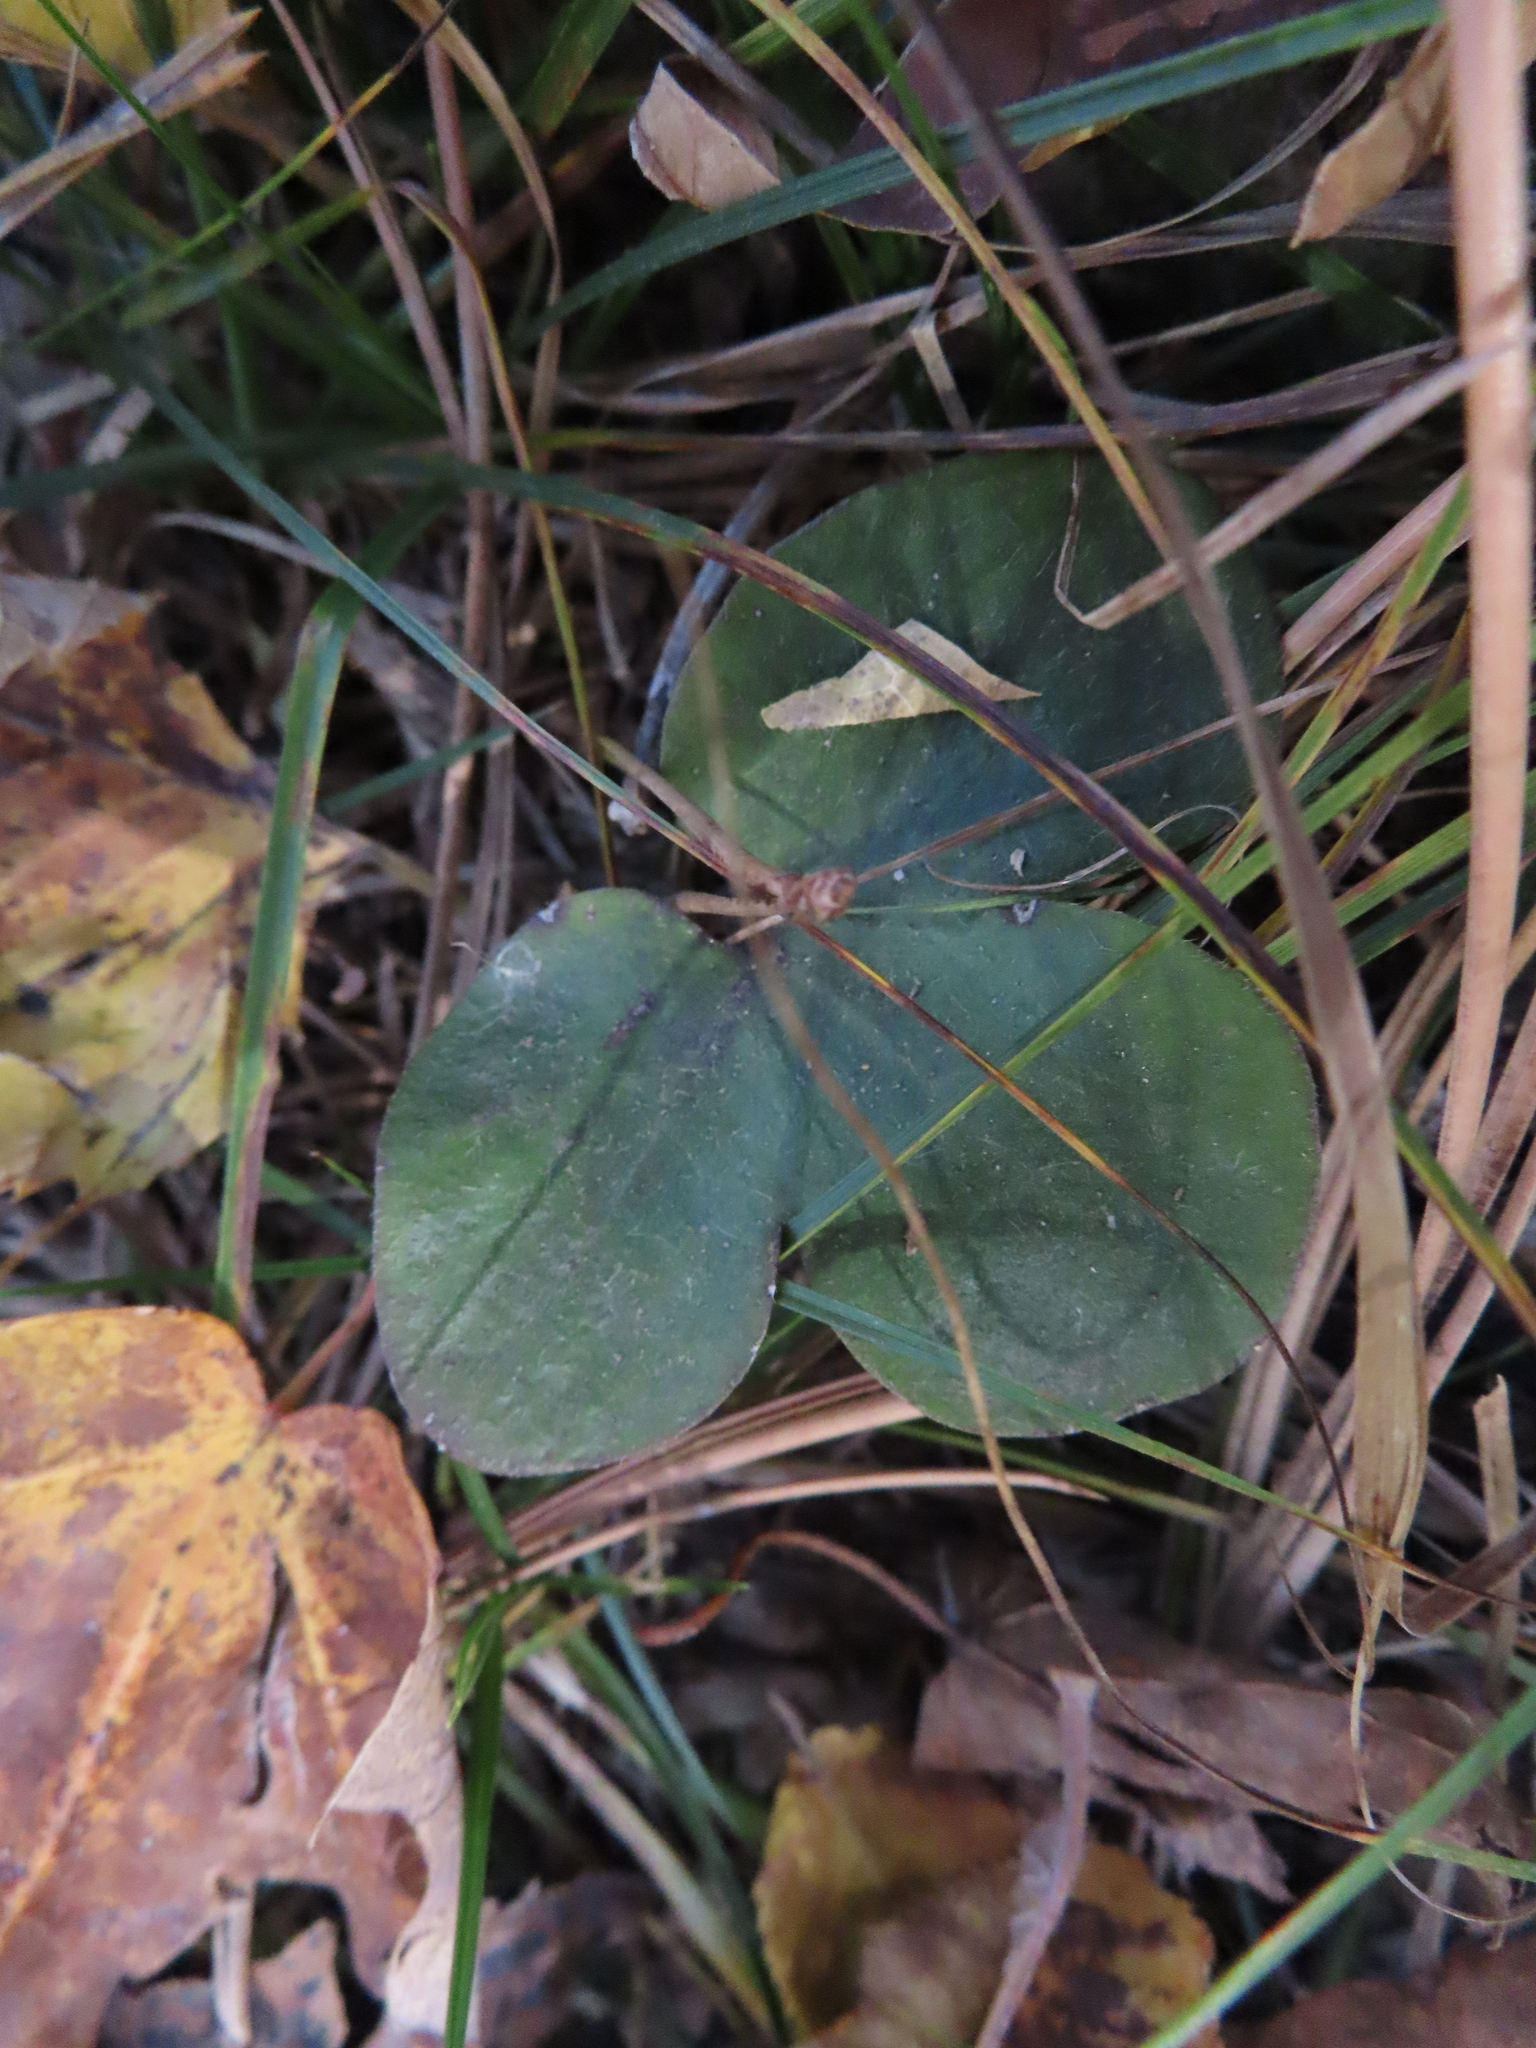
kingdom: Plantae
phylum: Tracheophyta
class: Magnoliopsida
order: Ranunculales
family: Ranunculaceae
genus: Hepatica
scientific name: Hepatica americana
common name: American hepatica
